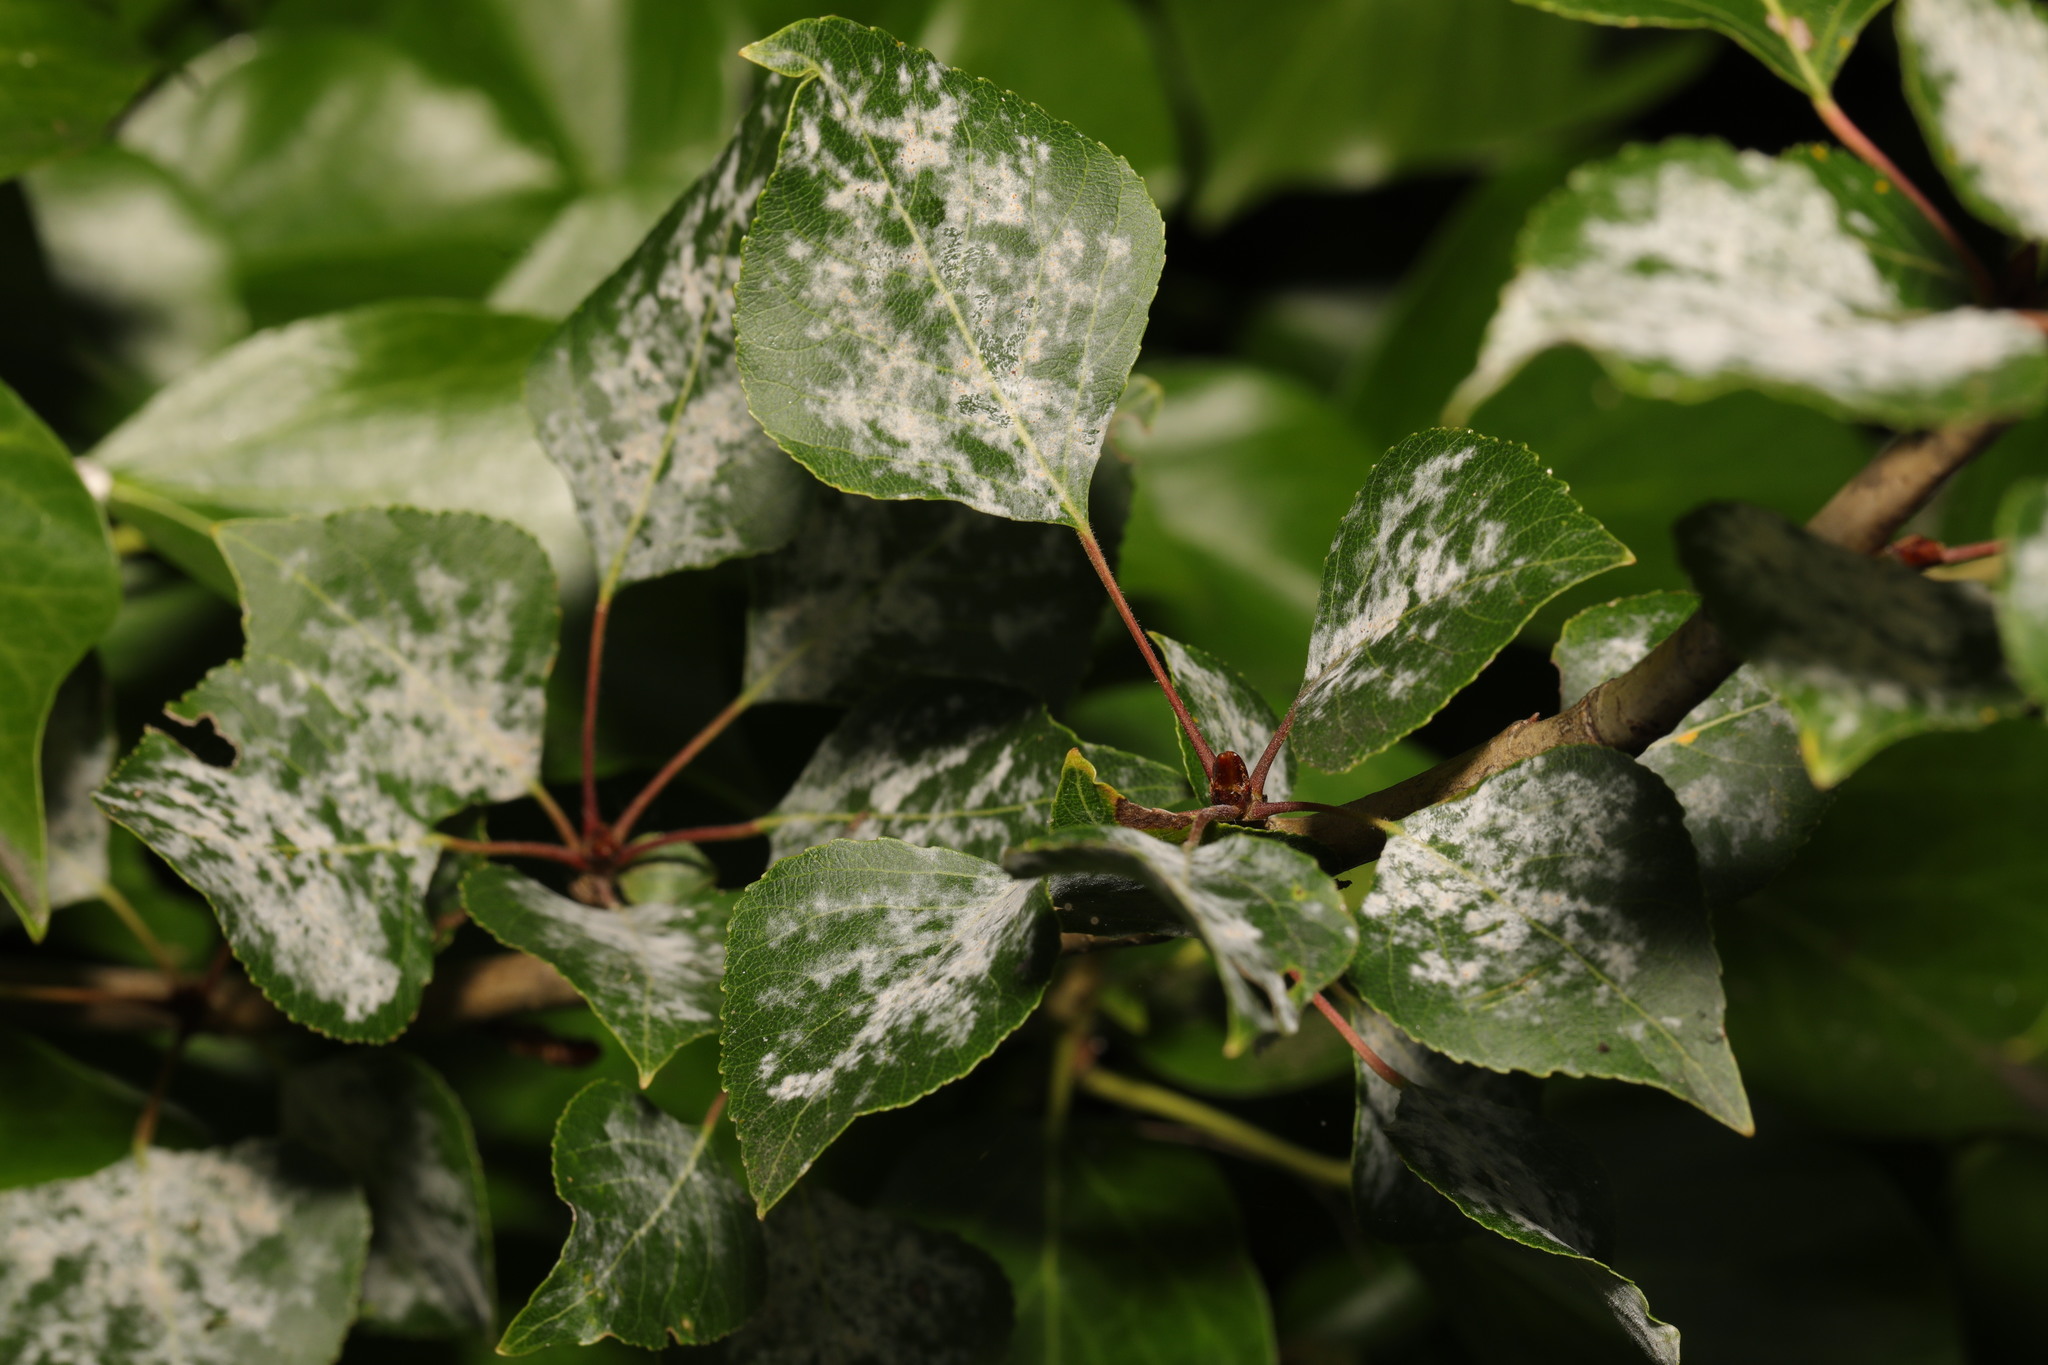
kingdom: Fungi
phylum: Ascomycota
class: Leotiomycetes
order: Helotiales
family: Erysiphaceae
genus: Erysiphe
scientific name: Erysiphe adunca
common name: Willow mildew
